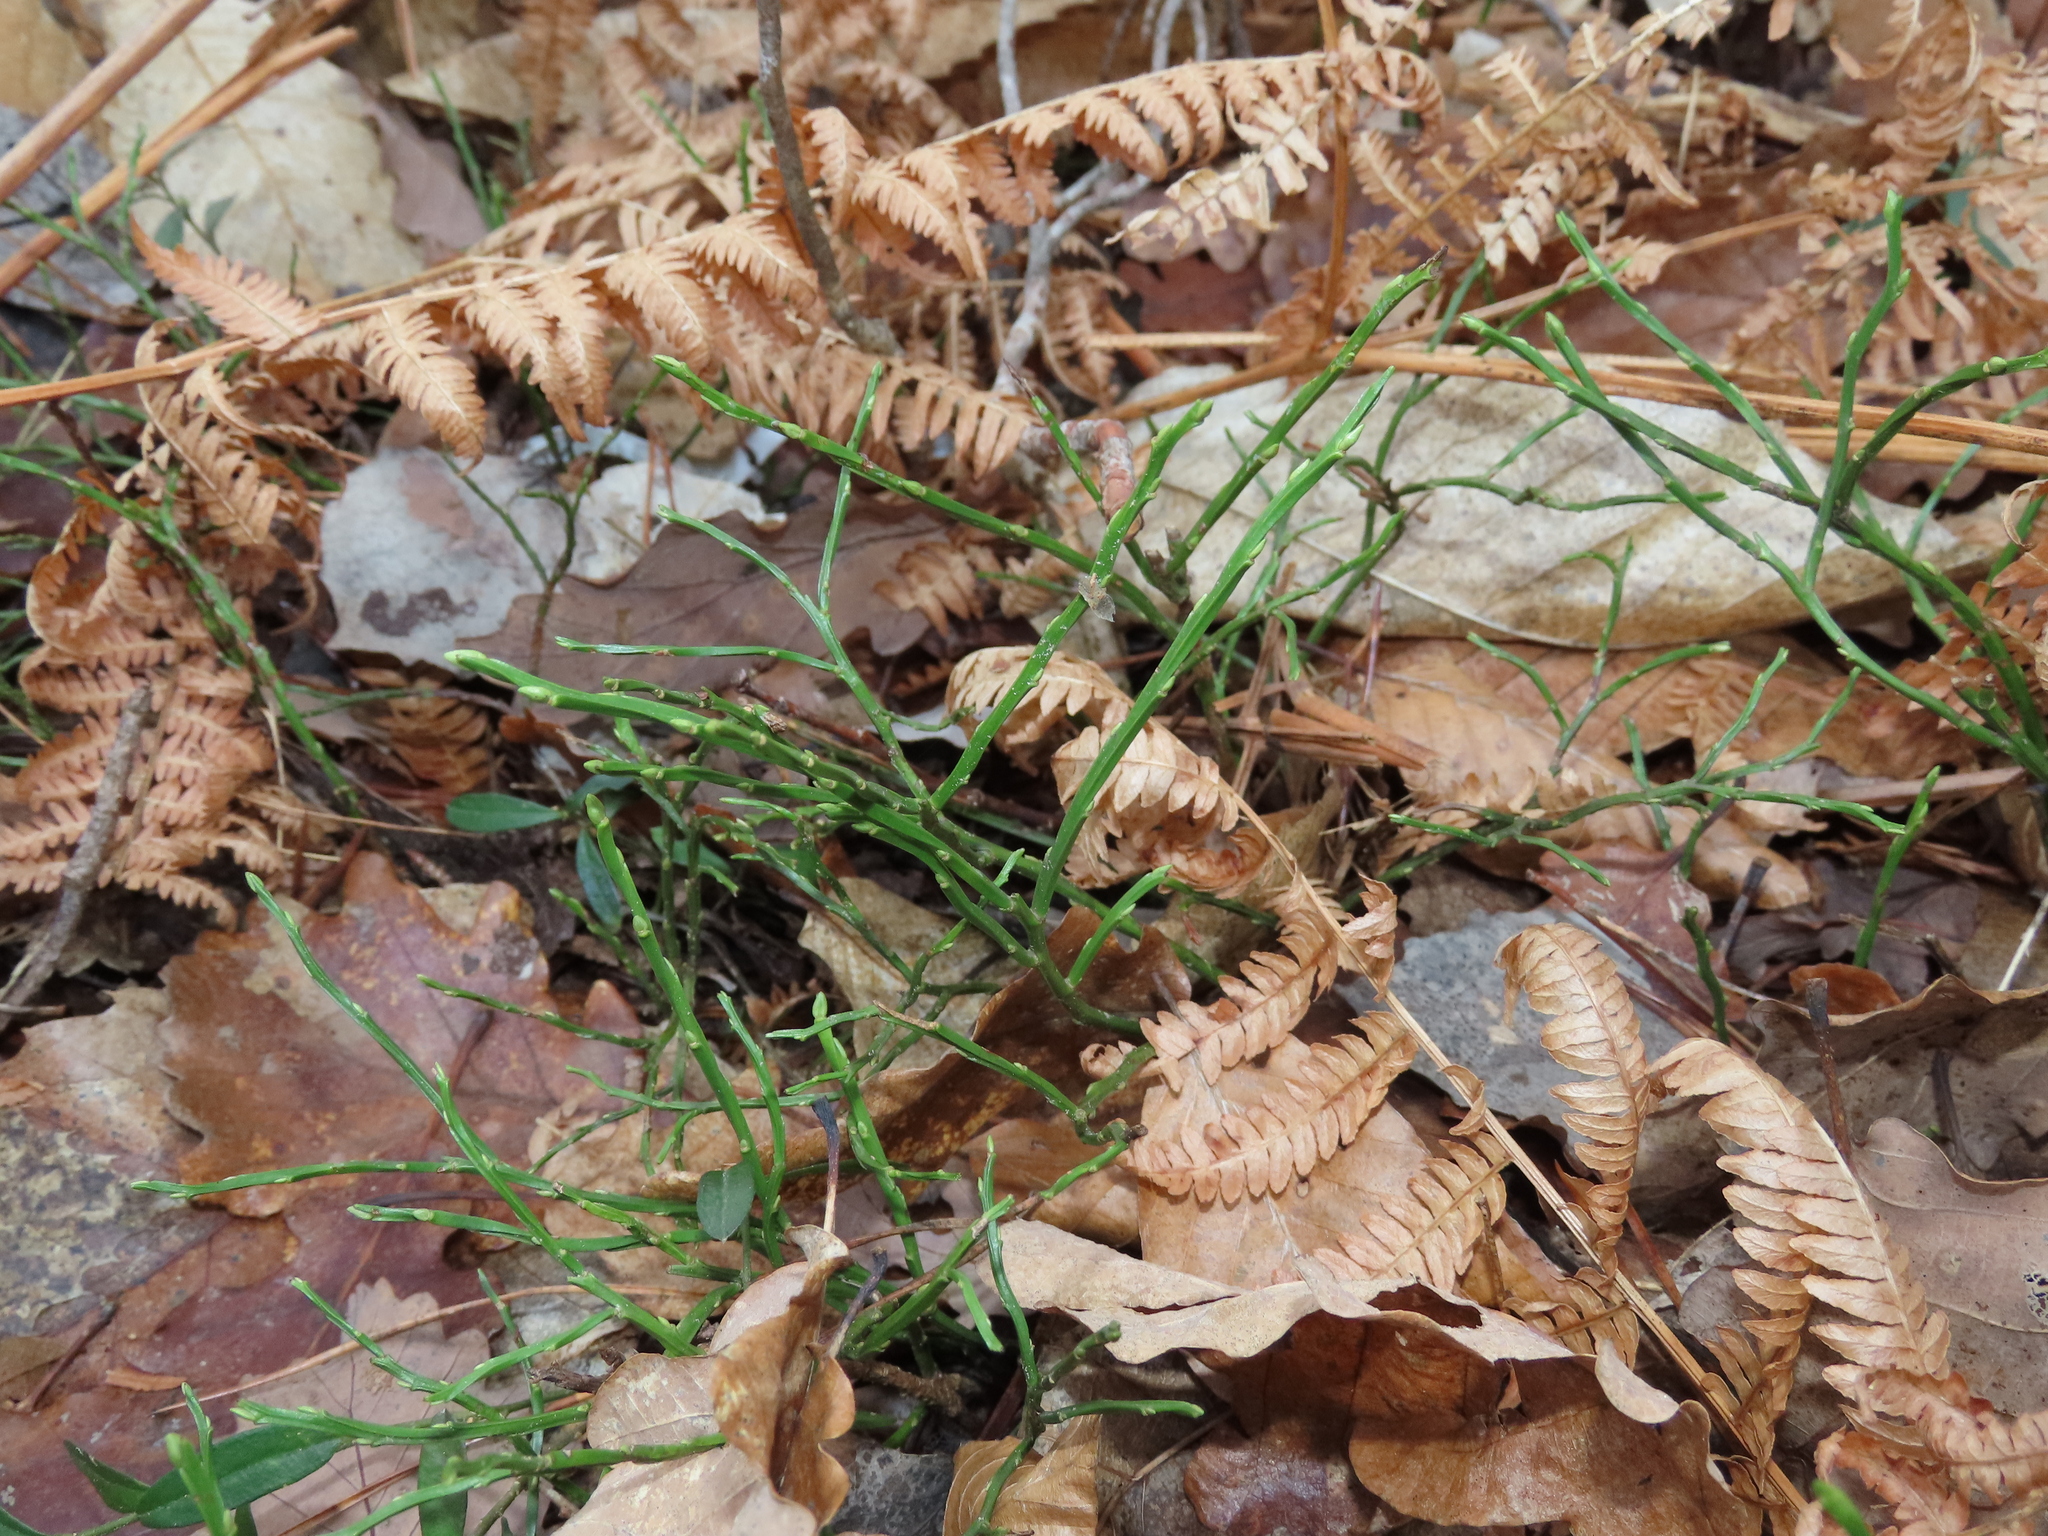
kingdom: Plantae
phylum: Tracheophyta
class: Magnoliopsida
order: Ericales
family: Ericaceae
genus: Vaccinium
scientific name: Vaccinium myrtillus
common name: Bilberry
